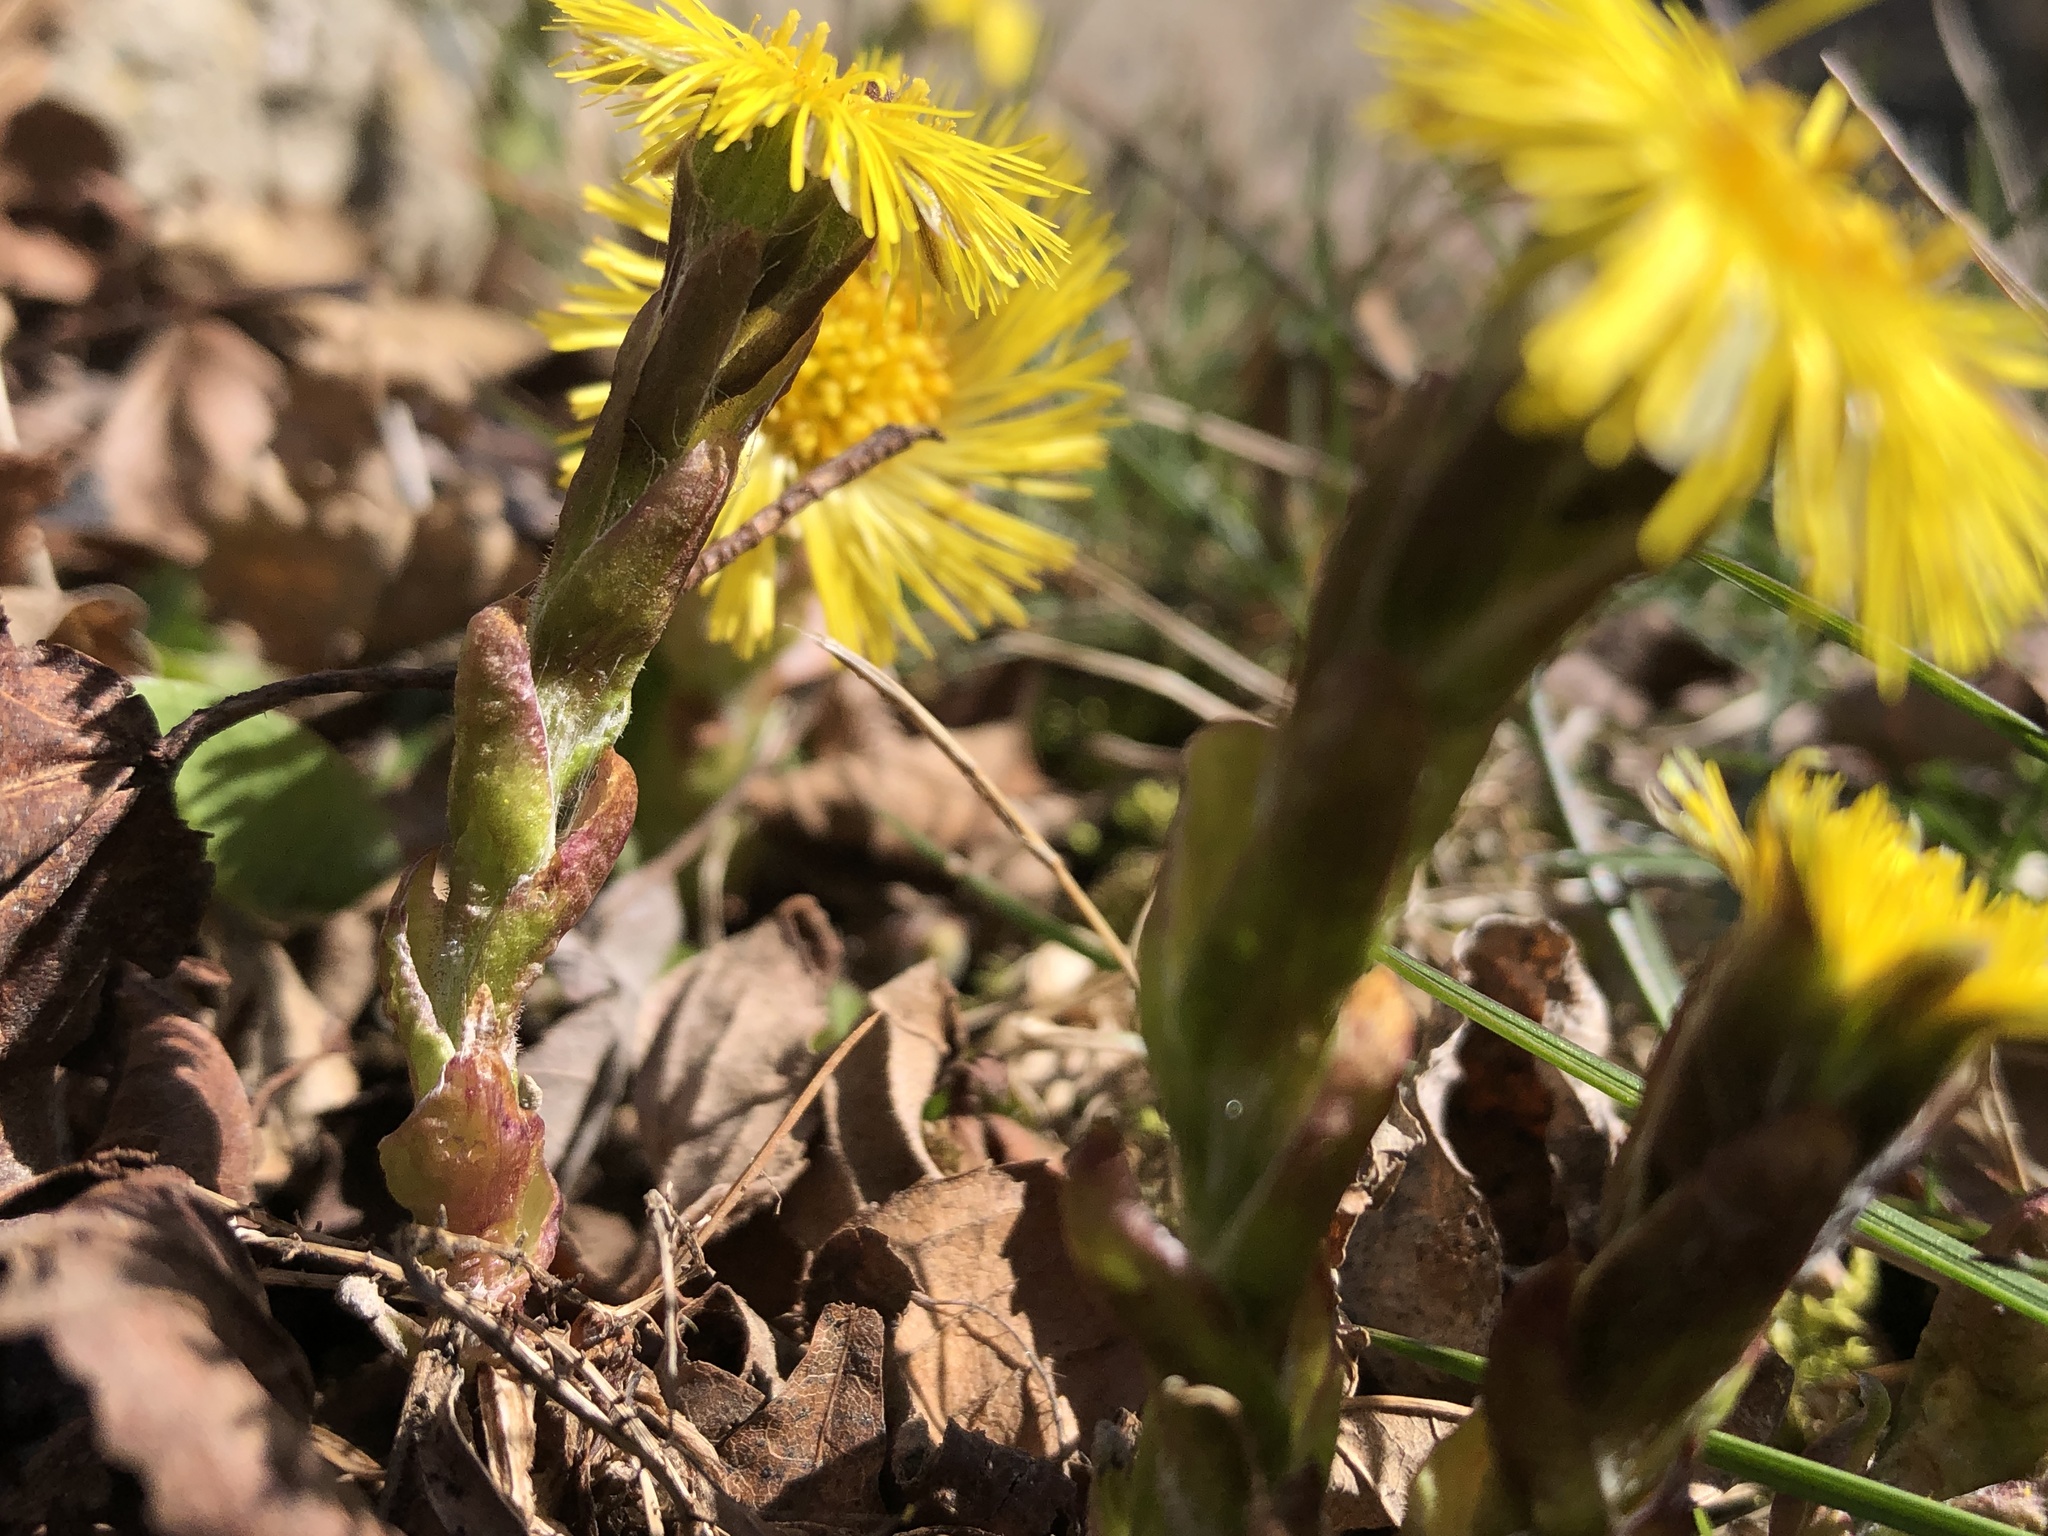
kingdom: Plantae
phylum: Tracheophyta
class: Magnoliopsida
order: Asterales
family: Asteraceae
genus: Tussilago
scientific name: Tussilago farfara
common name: Coltsfoot
